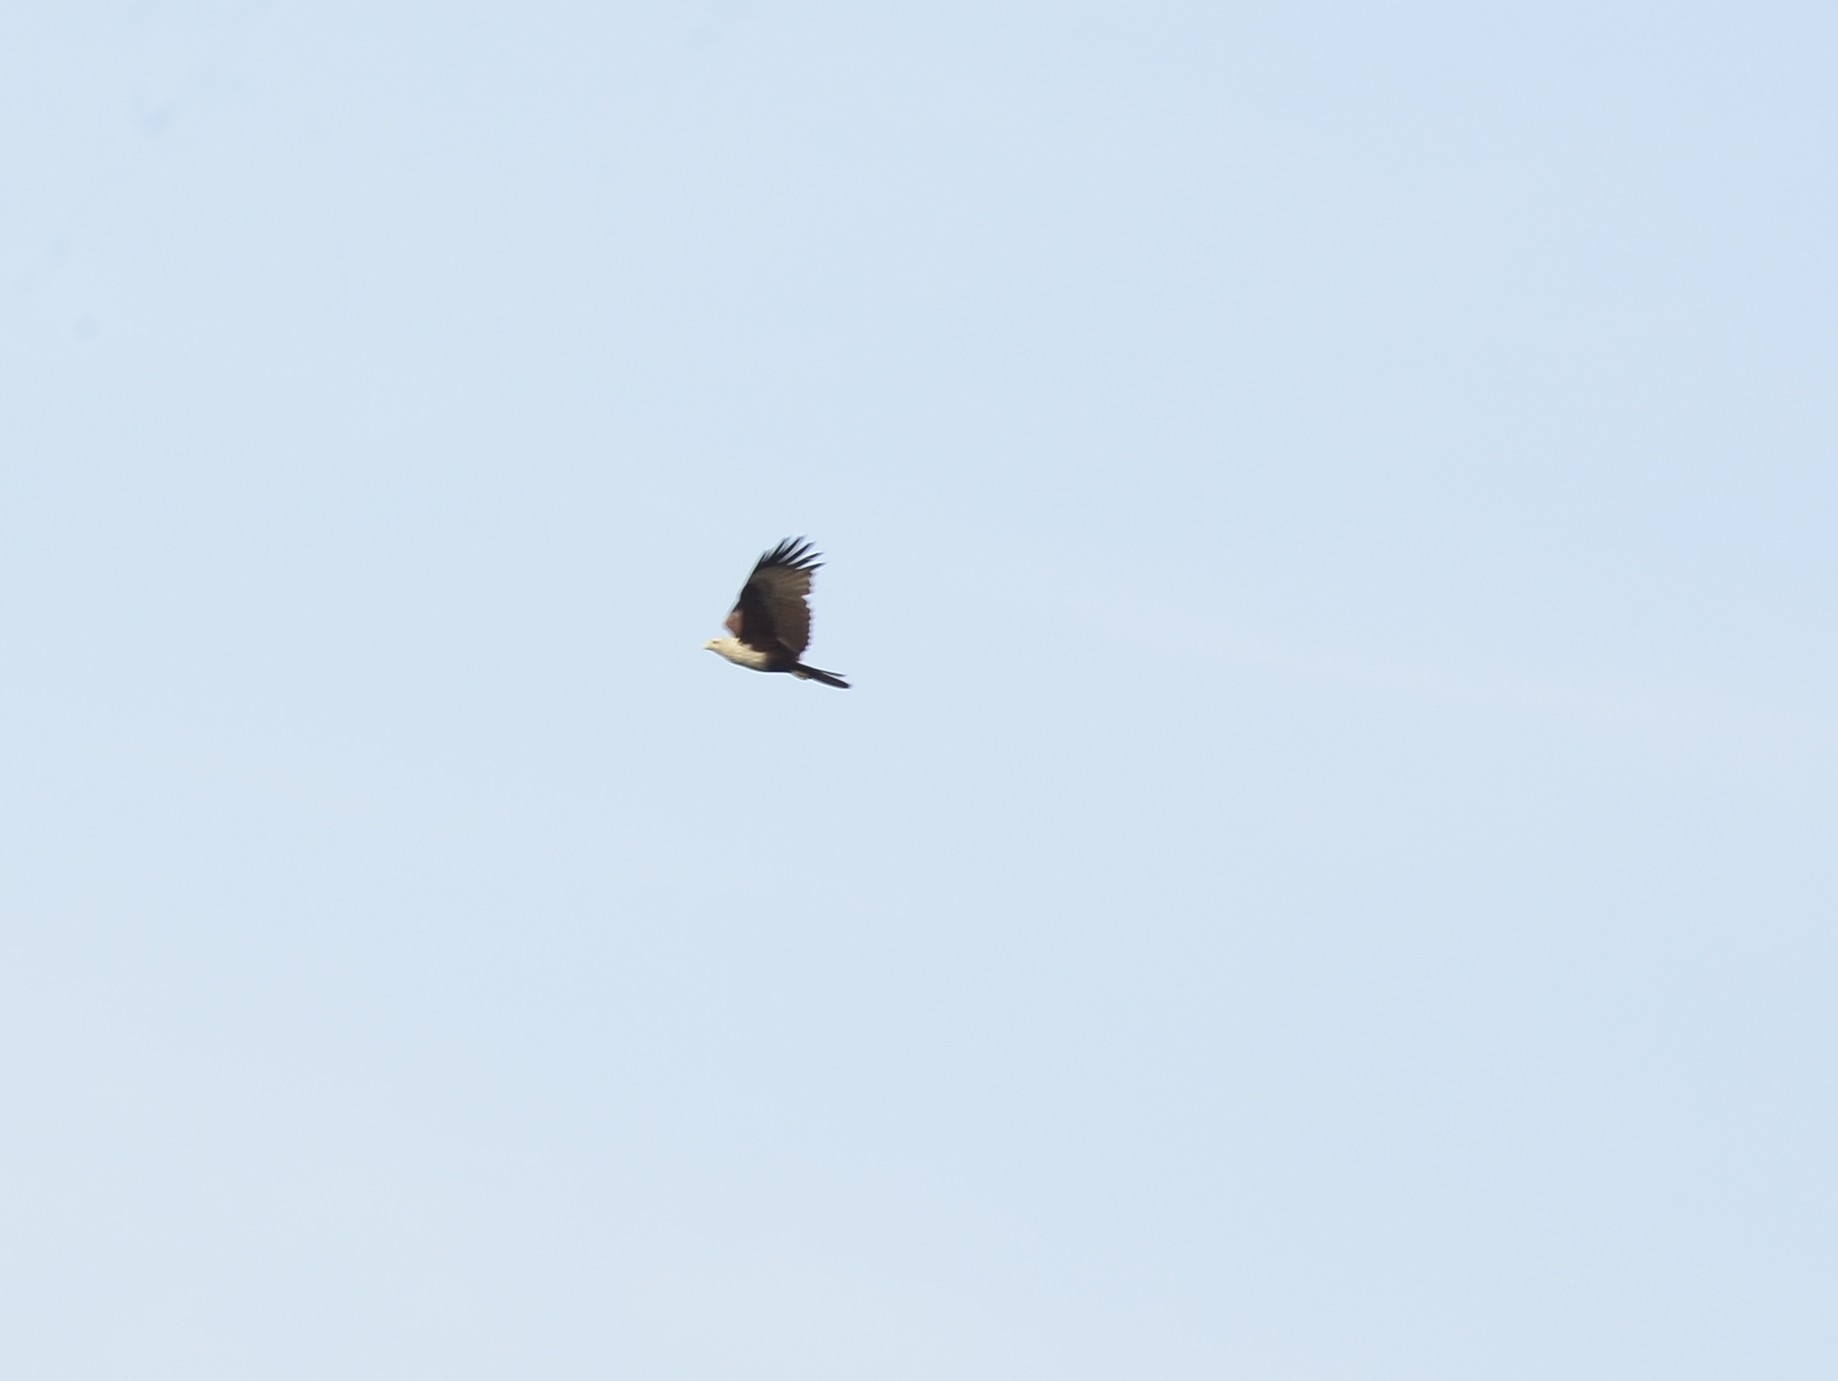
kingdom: Animalia
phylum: Chordata
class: Aves
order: Accipitriformes
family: Accipitridae
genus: Haliastur
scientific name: Haliastur indus
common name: Brahminy kite
